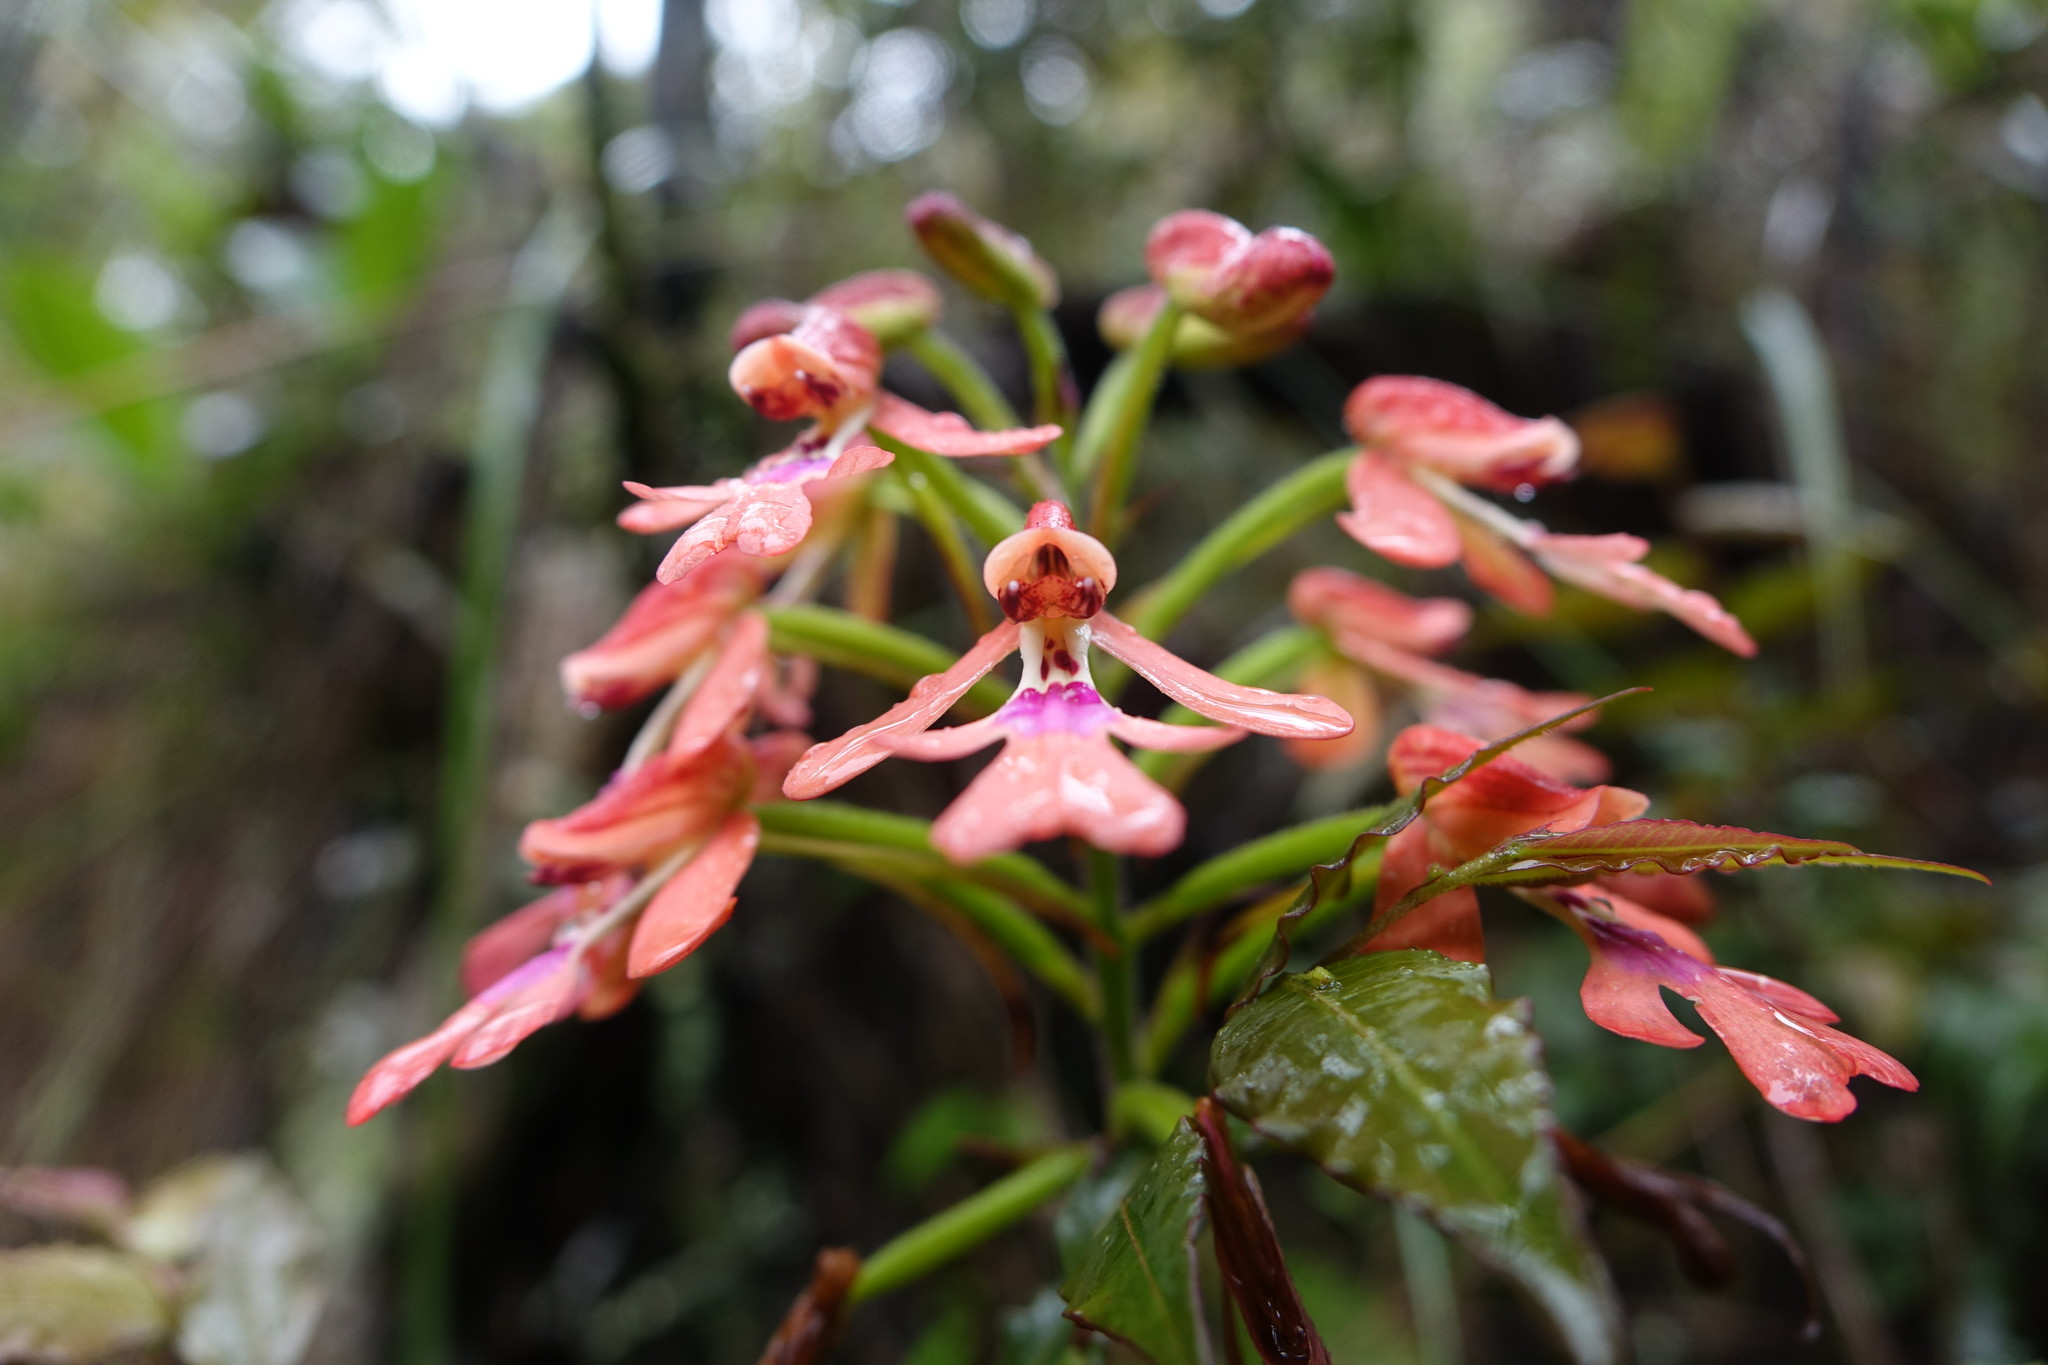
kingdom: Plantae
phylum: Tracheophyta
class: Liliopsida
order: Asparagales
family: Orchidaceae
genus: Cynorkis
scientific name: Cynorkis gibbosa
